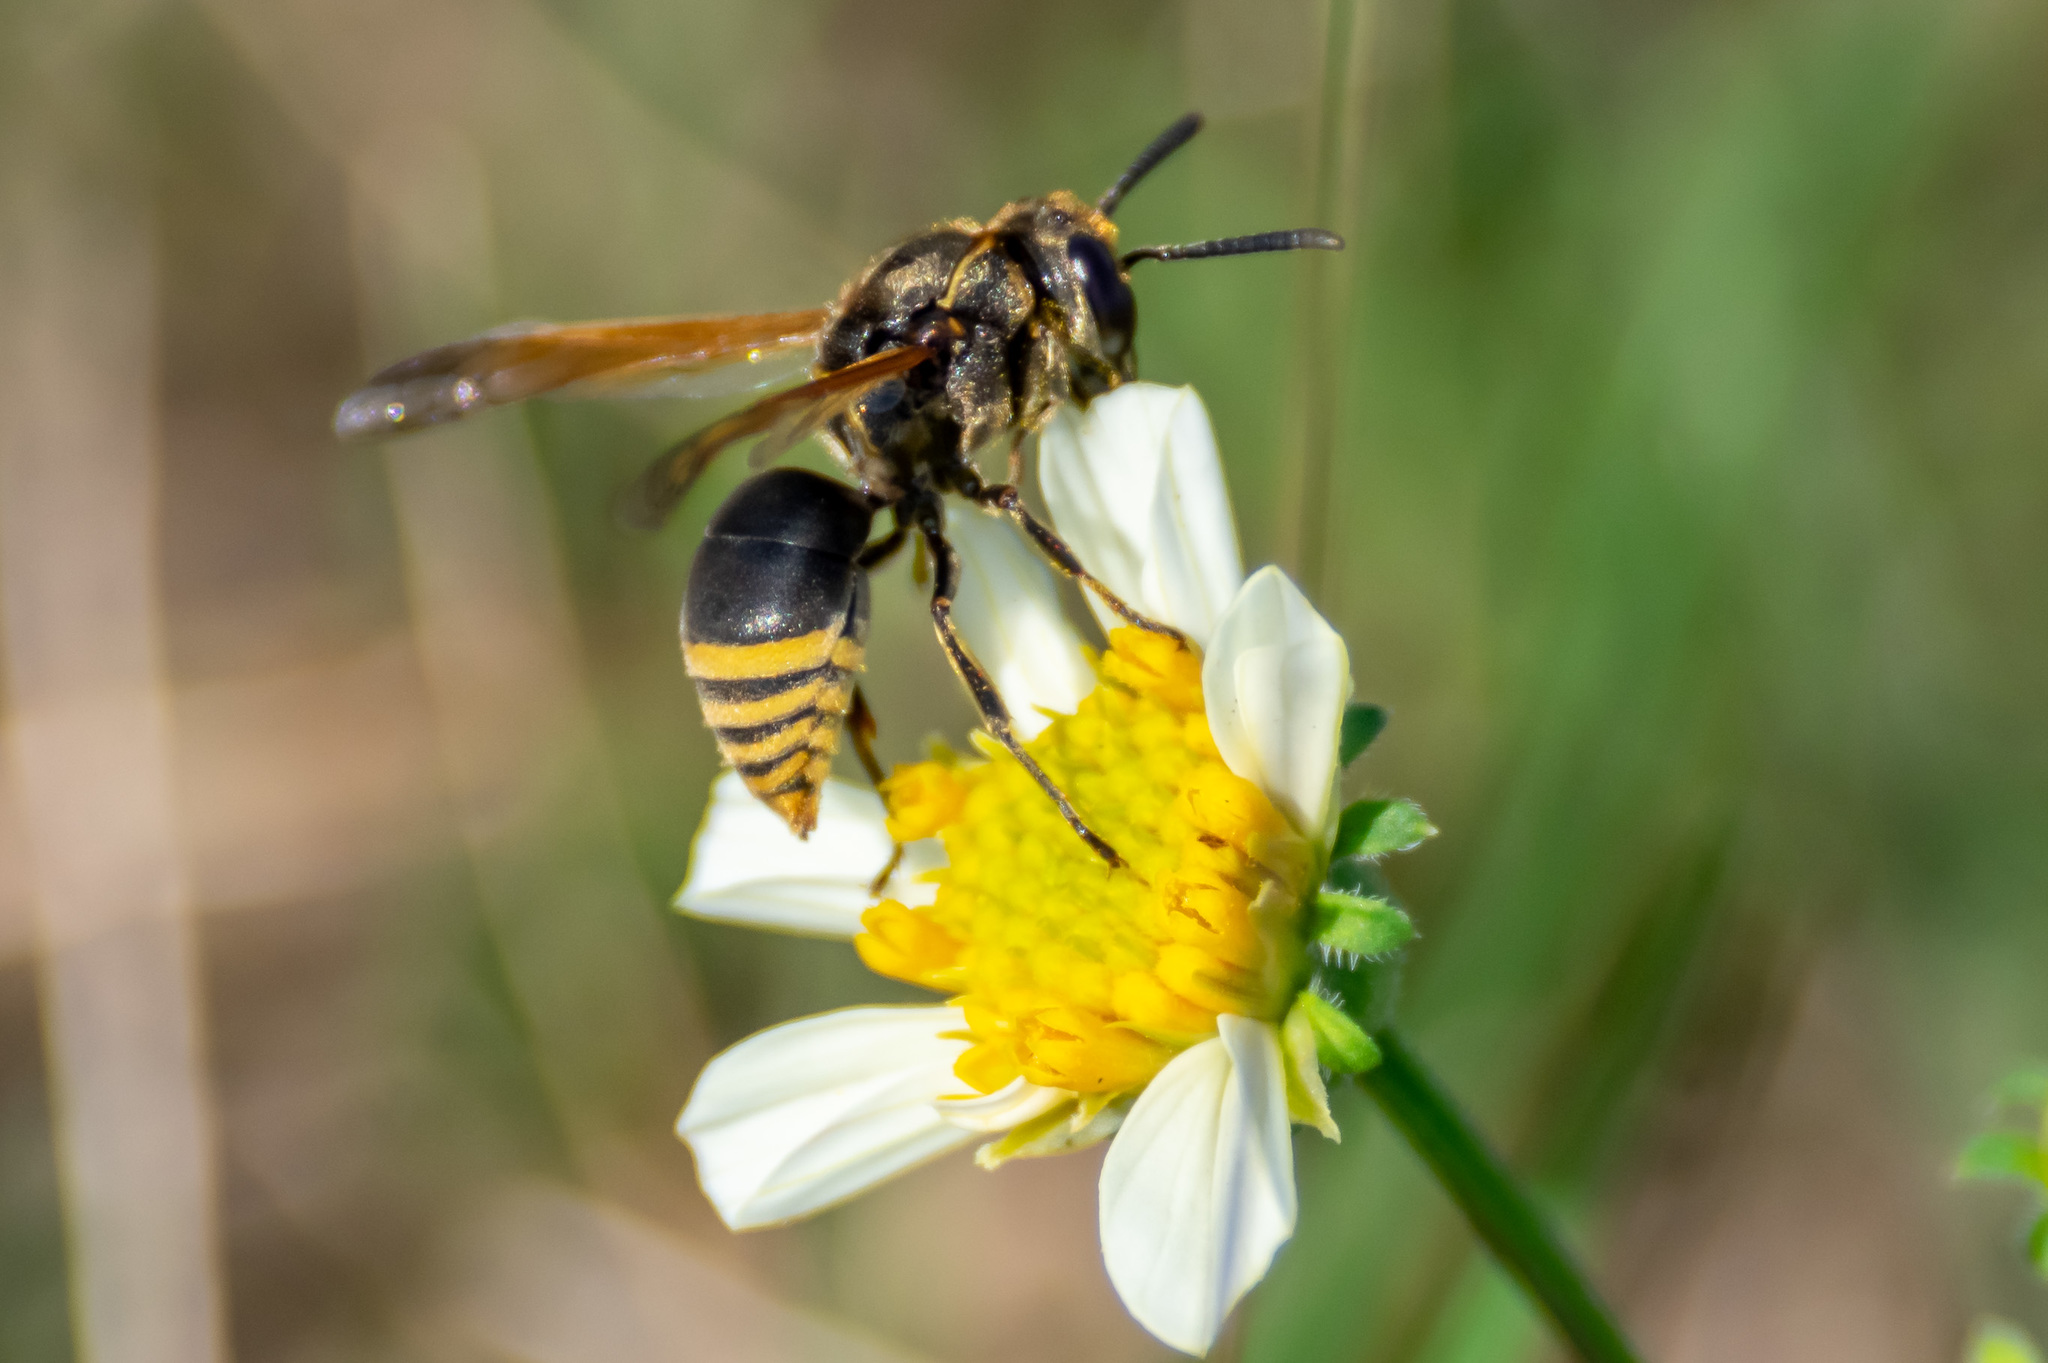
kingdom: Animalia
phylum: Arthropoda
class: Insecta
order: Hymenoptera
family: Eumenidae
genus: Pachodynerus
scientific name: Pachodynerus nasidens
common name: Key hole wasp
